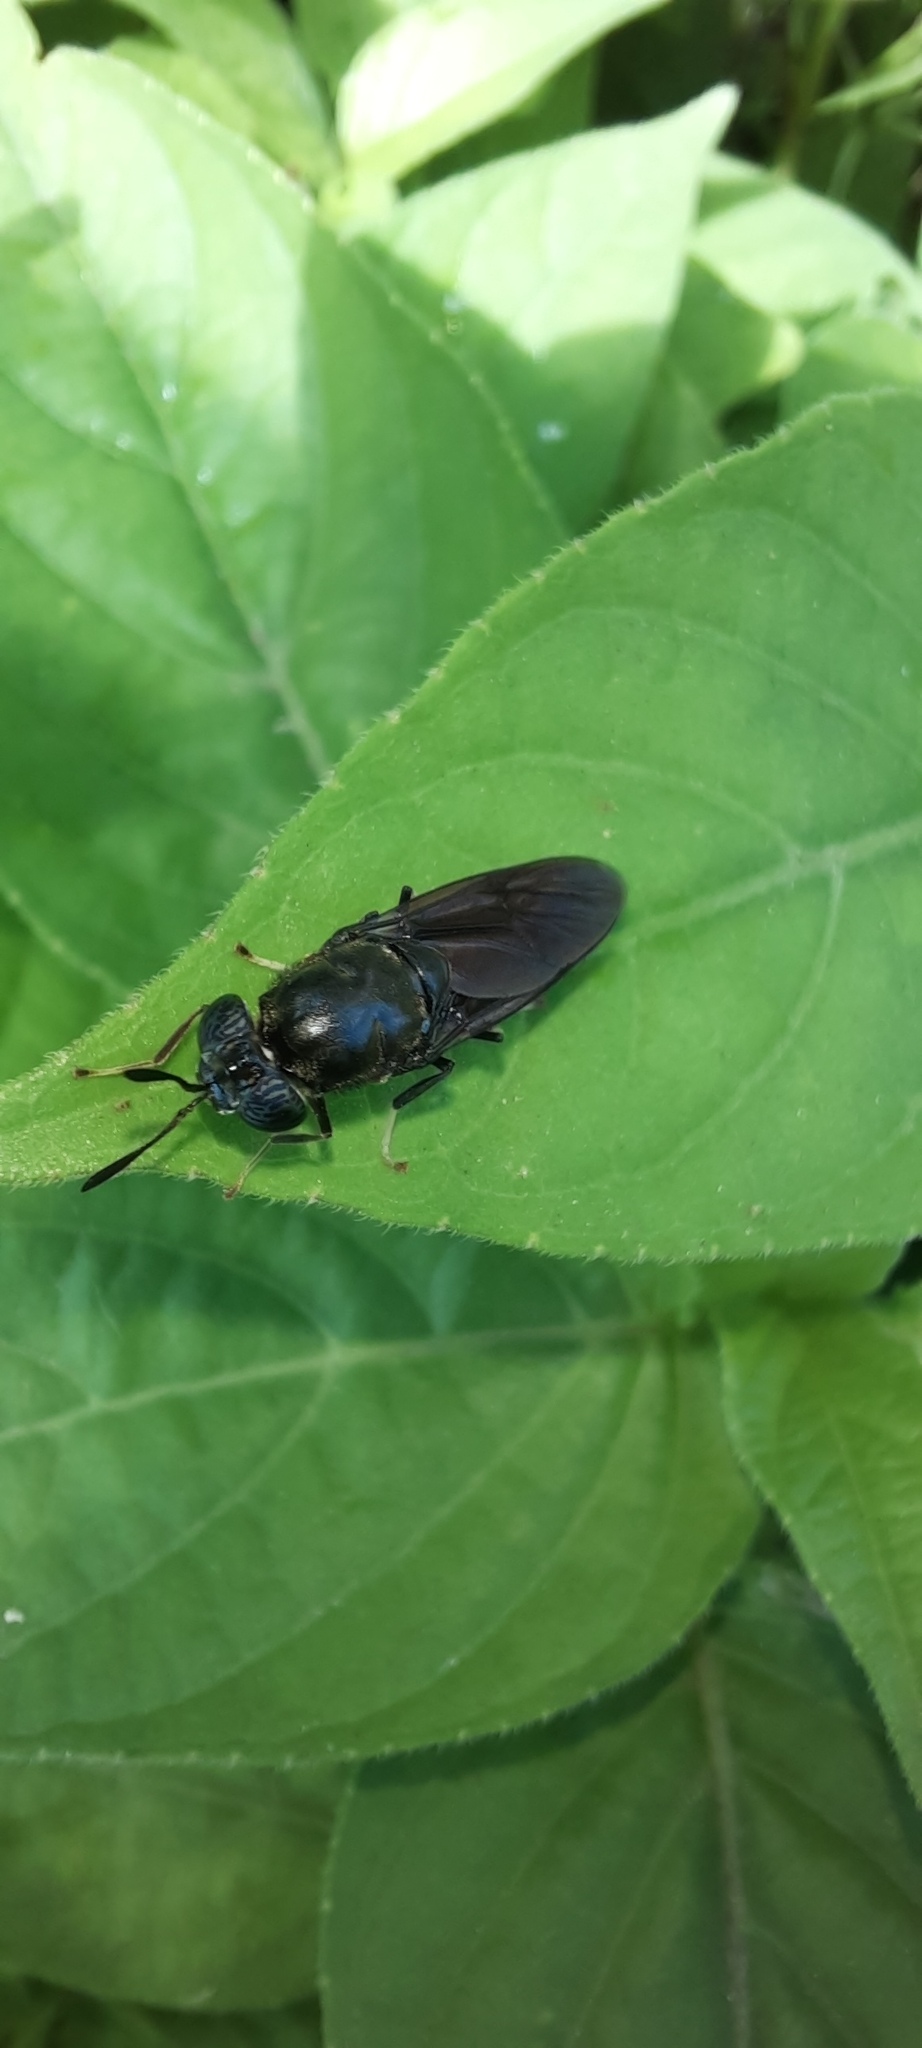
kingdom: Animalia
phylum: Arthropoda
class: Insecta
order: Diptera
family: Stratiomyidae
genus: Hermetia
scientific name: Hermetia illucens
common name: Black soldier fly
